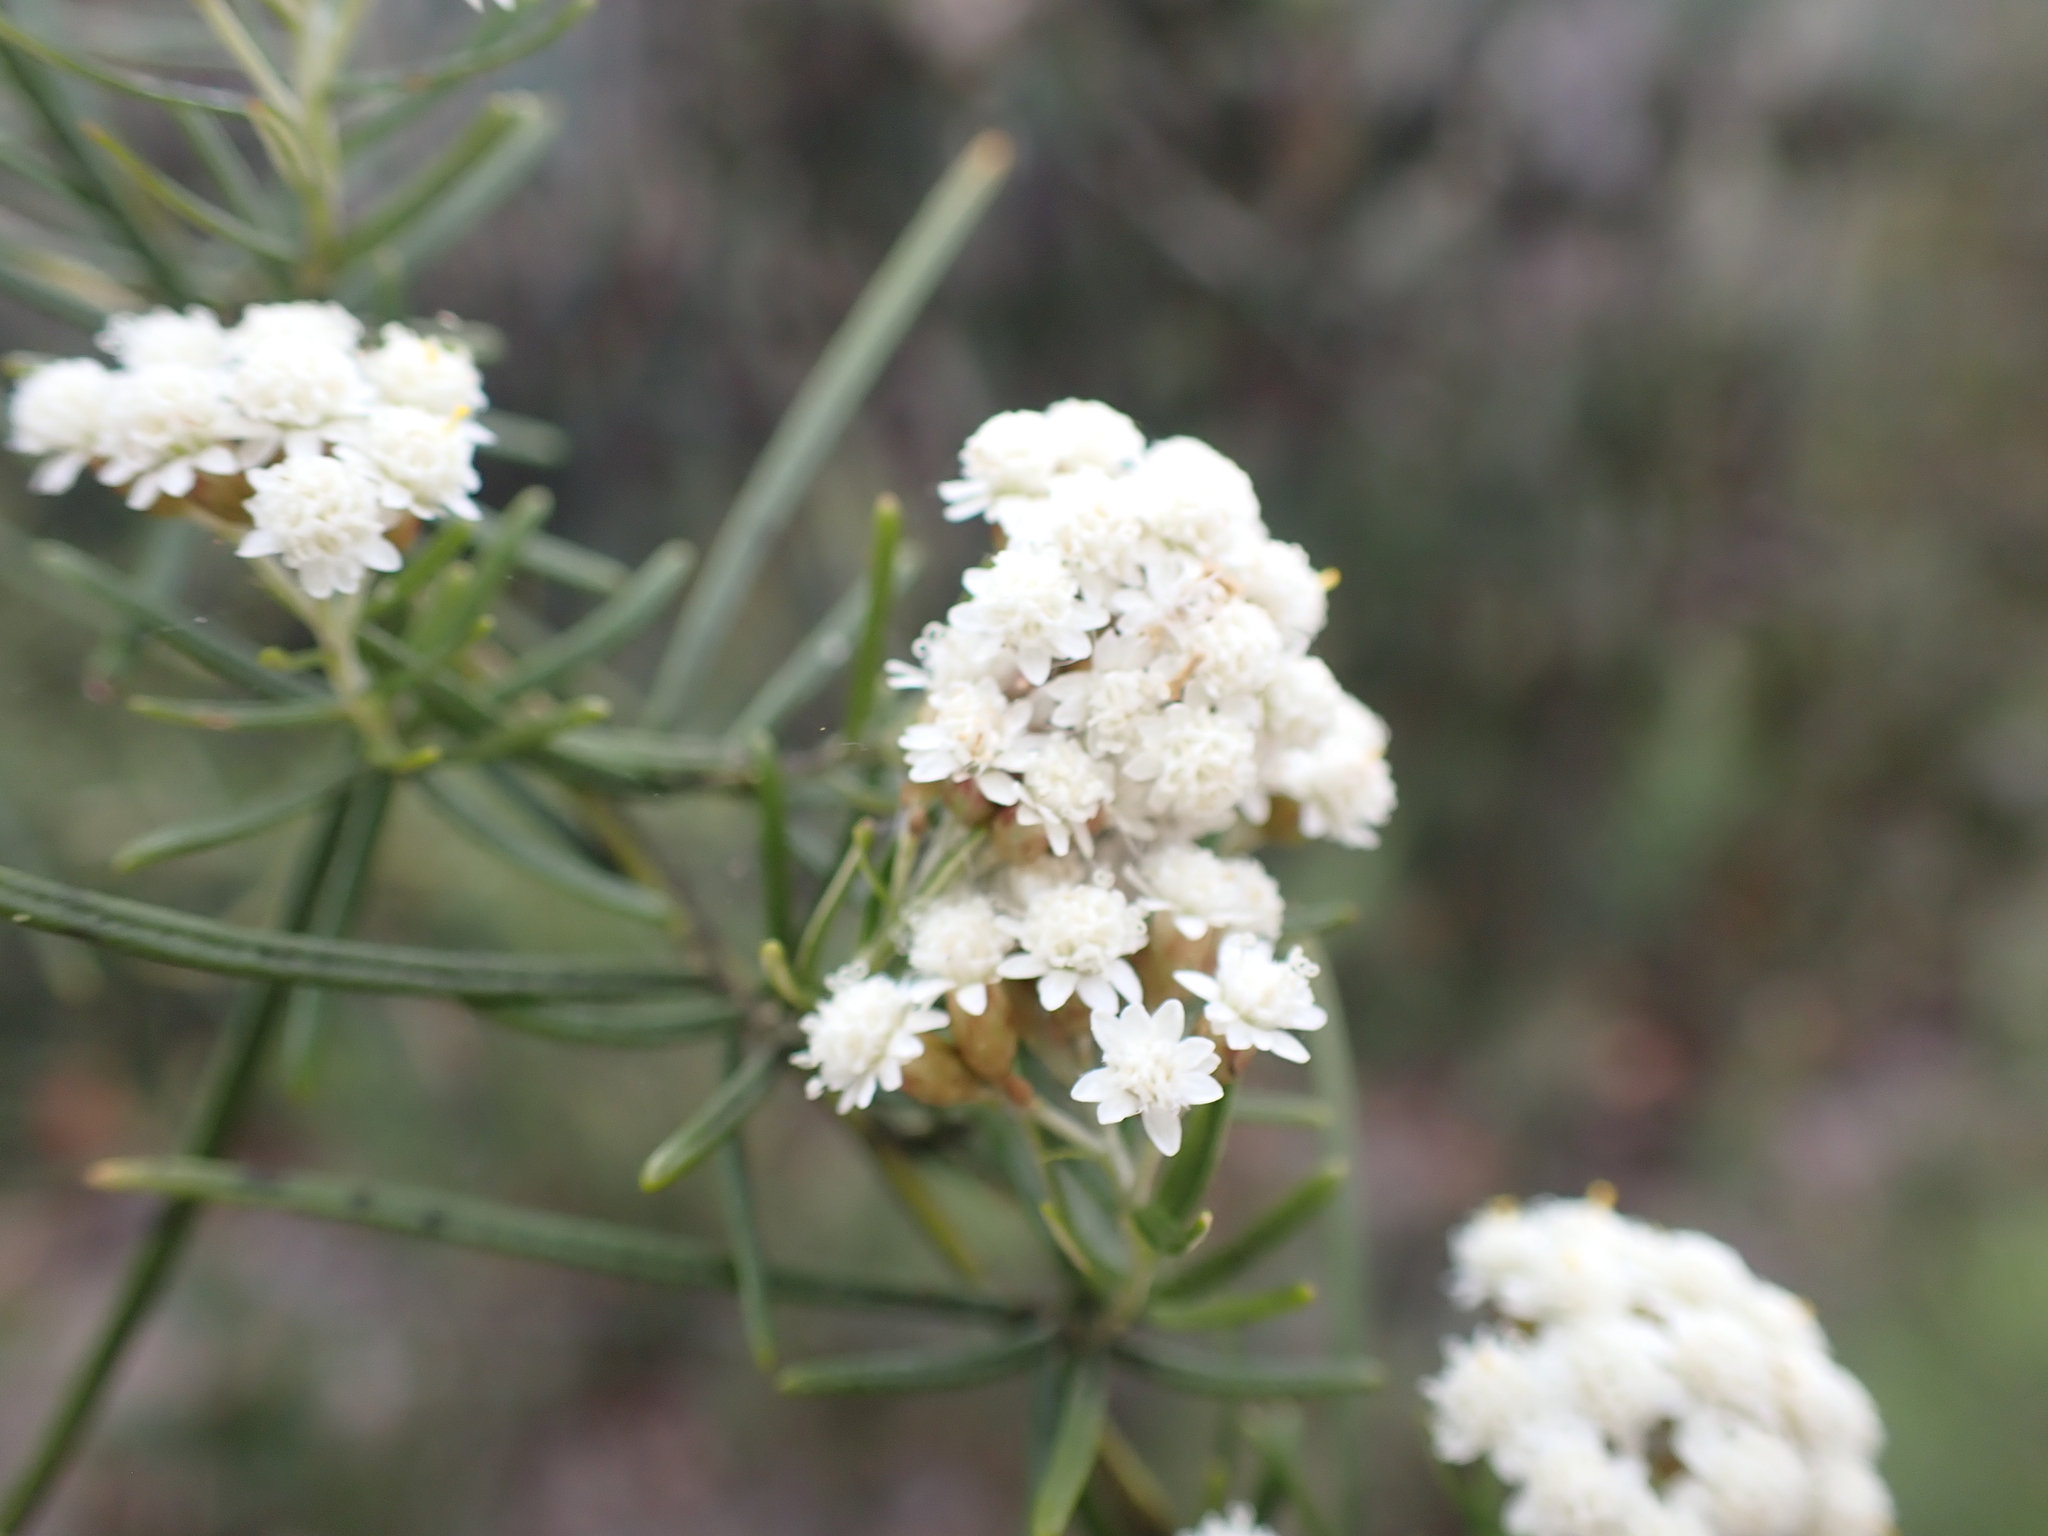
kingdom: Plantae
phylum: Tracheophyta
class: Magnoliopsida
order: Asterales
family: Asteraceae
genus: Ozothamnus
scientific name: Ozothamnus thyrsoideus
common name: Snow-in-summer
